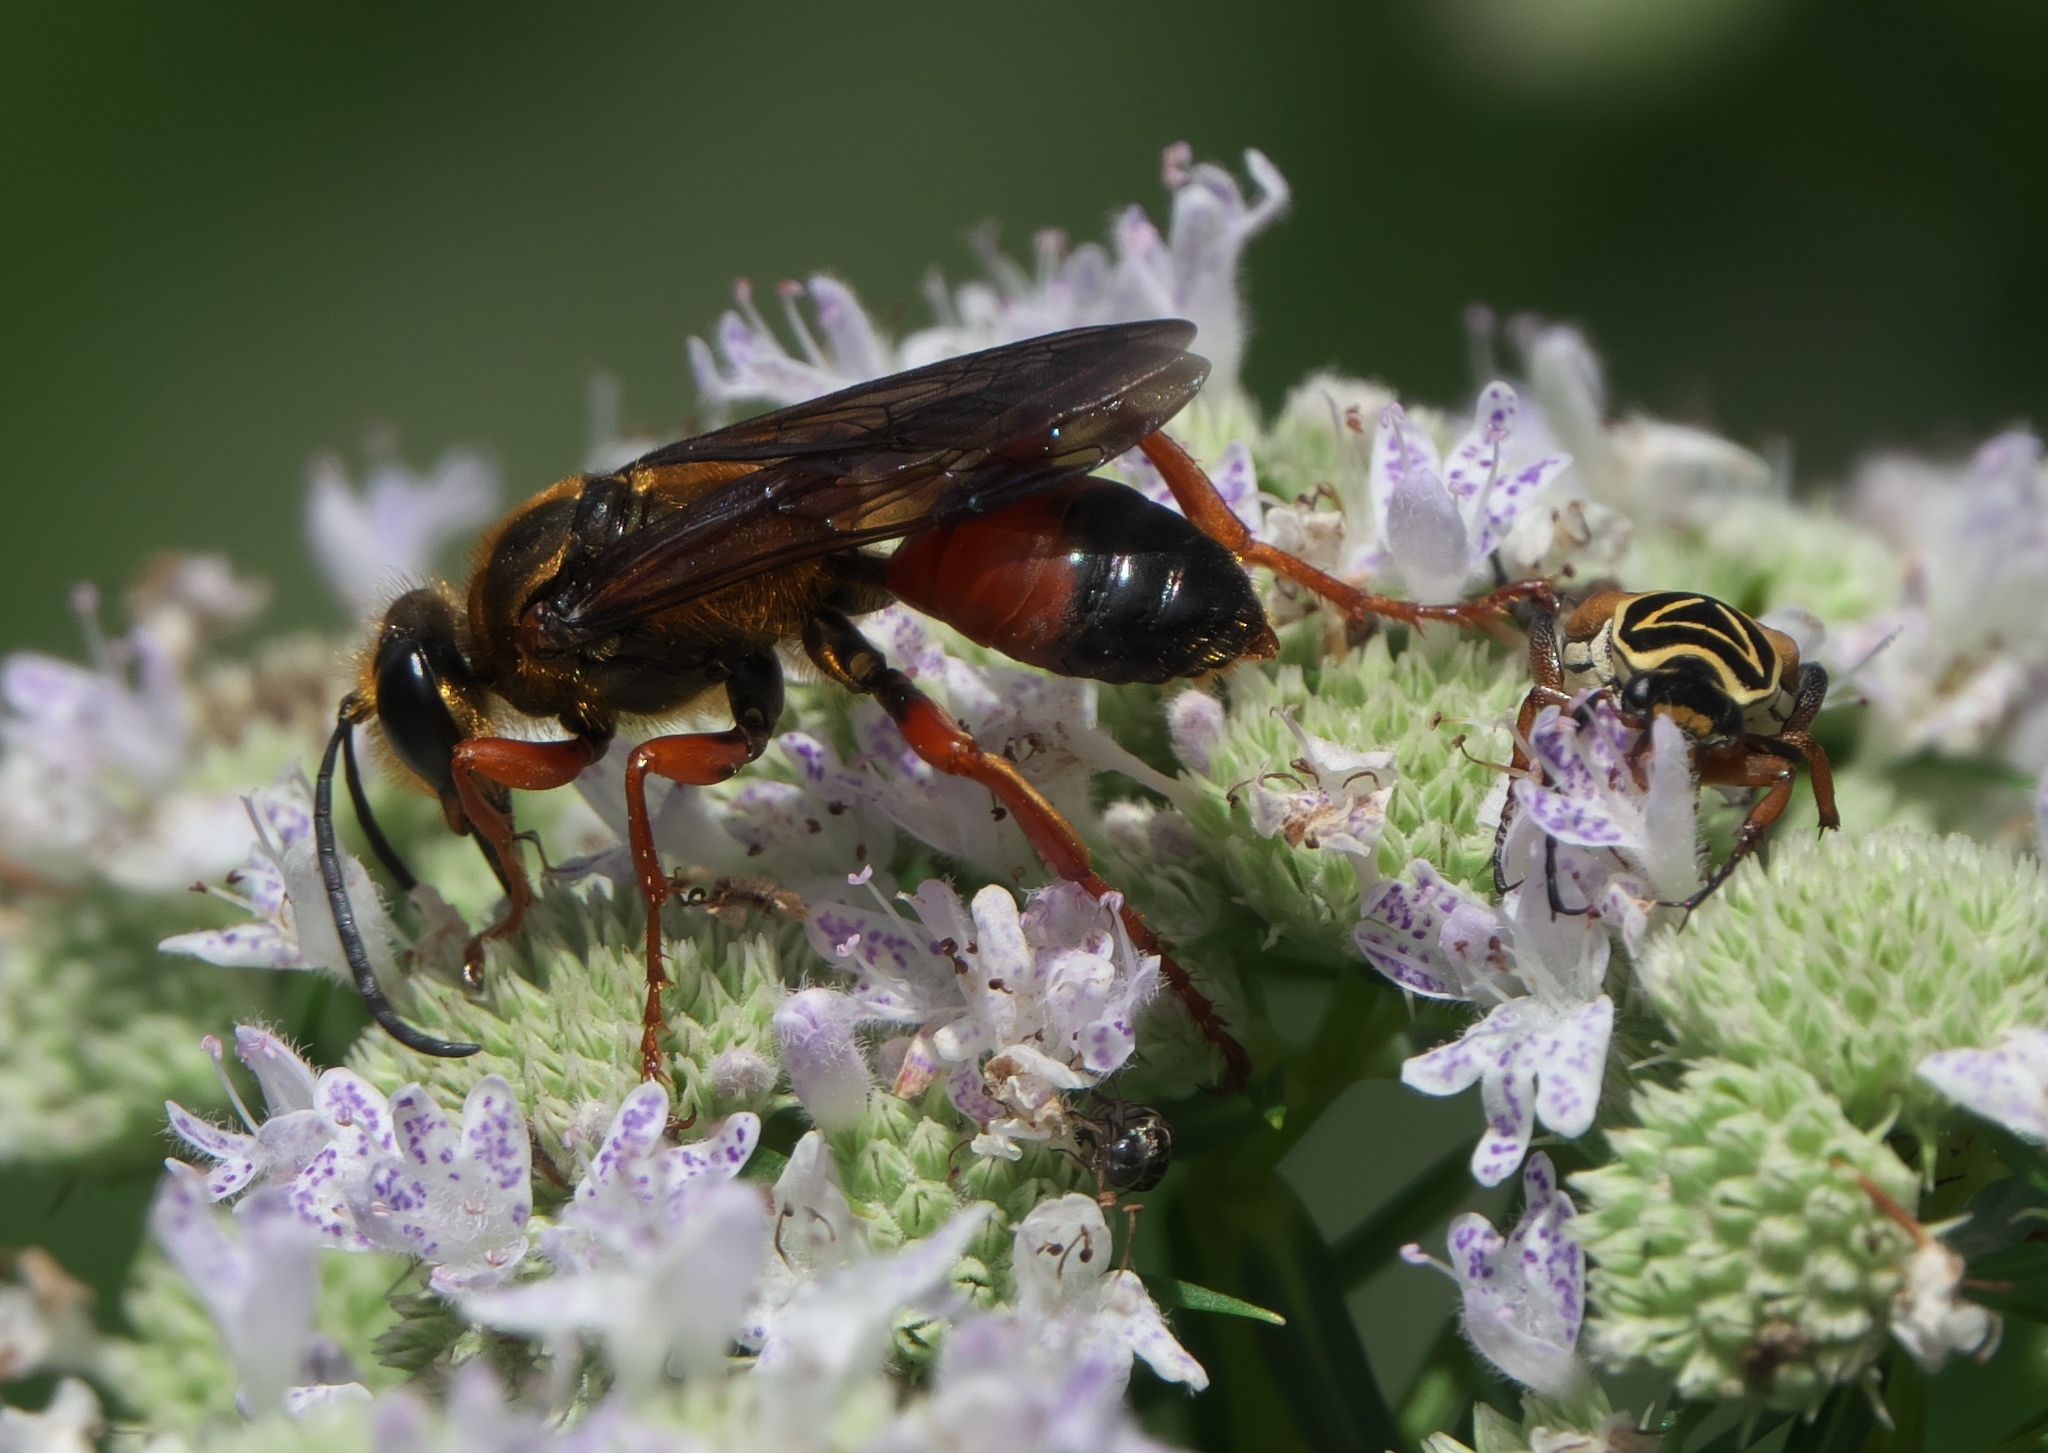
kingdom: Animalia
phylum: Arthropoda
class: Insecta
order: Hymenoptera
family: Sphecidae
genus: Sphex
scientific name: Sphex ichneumoneus
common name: Great golden digger wasp
